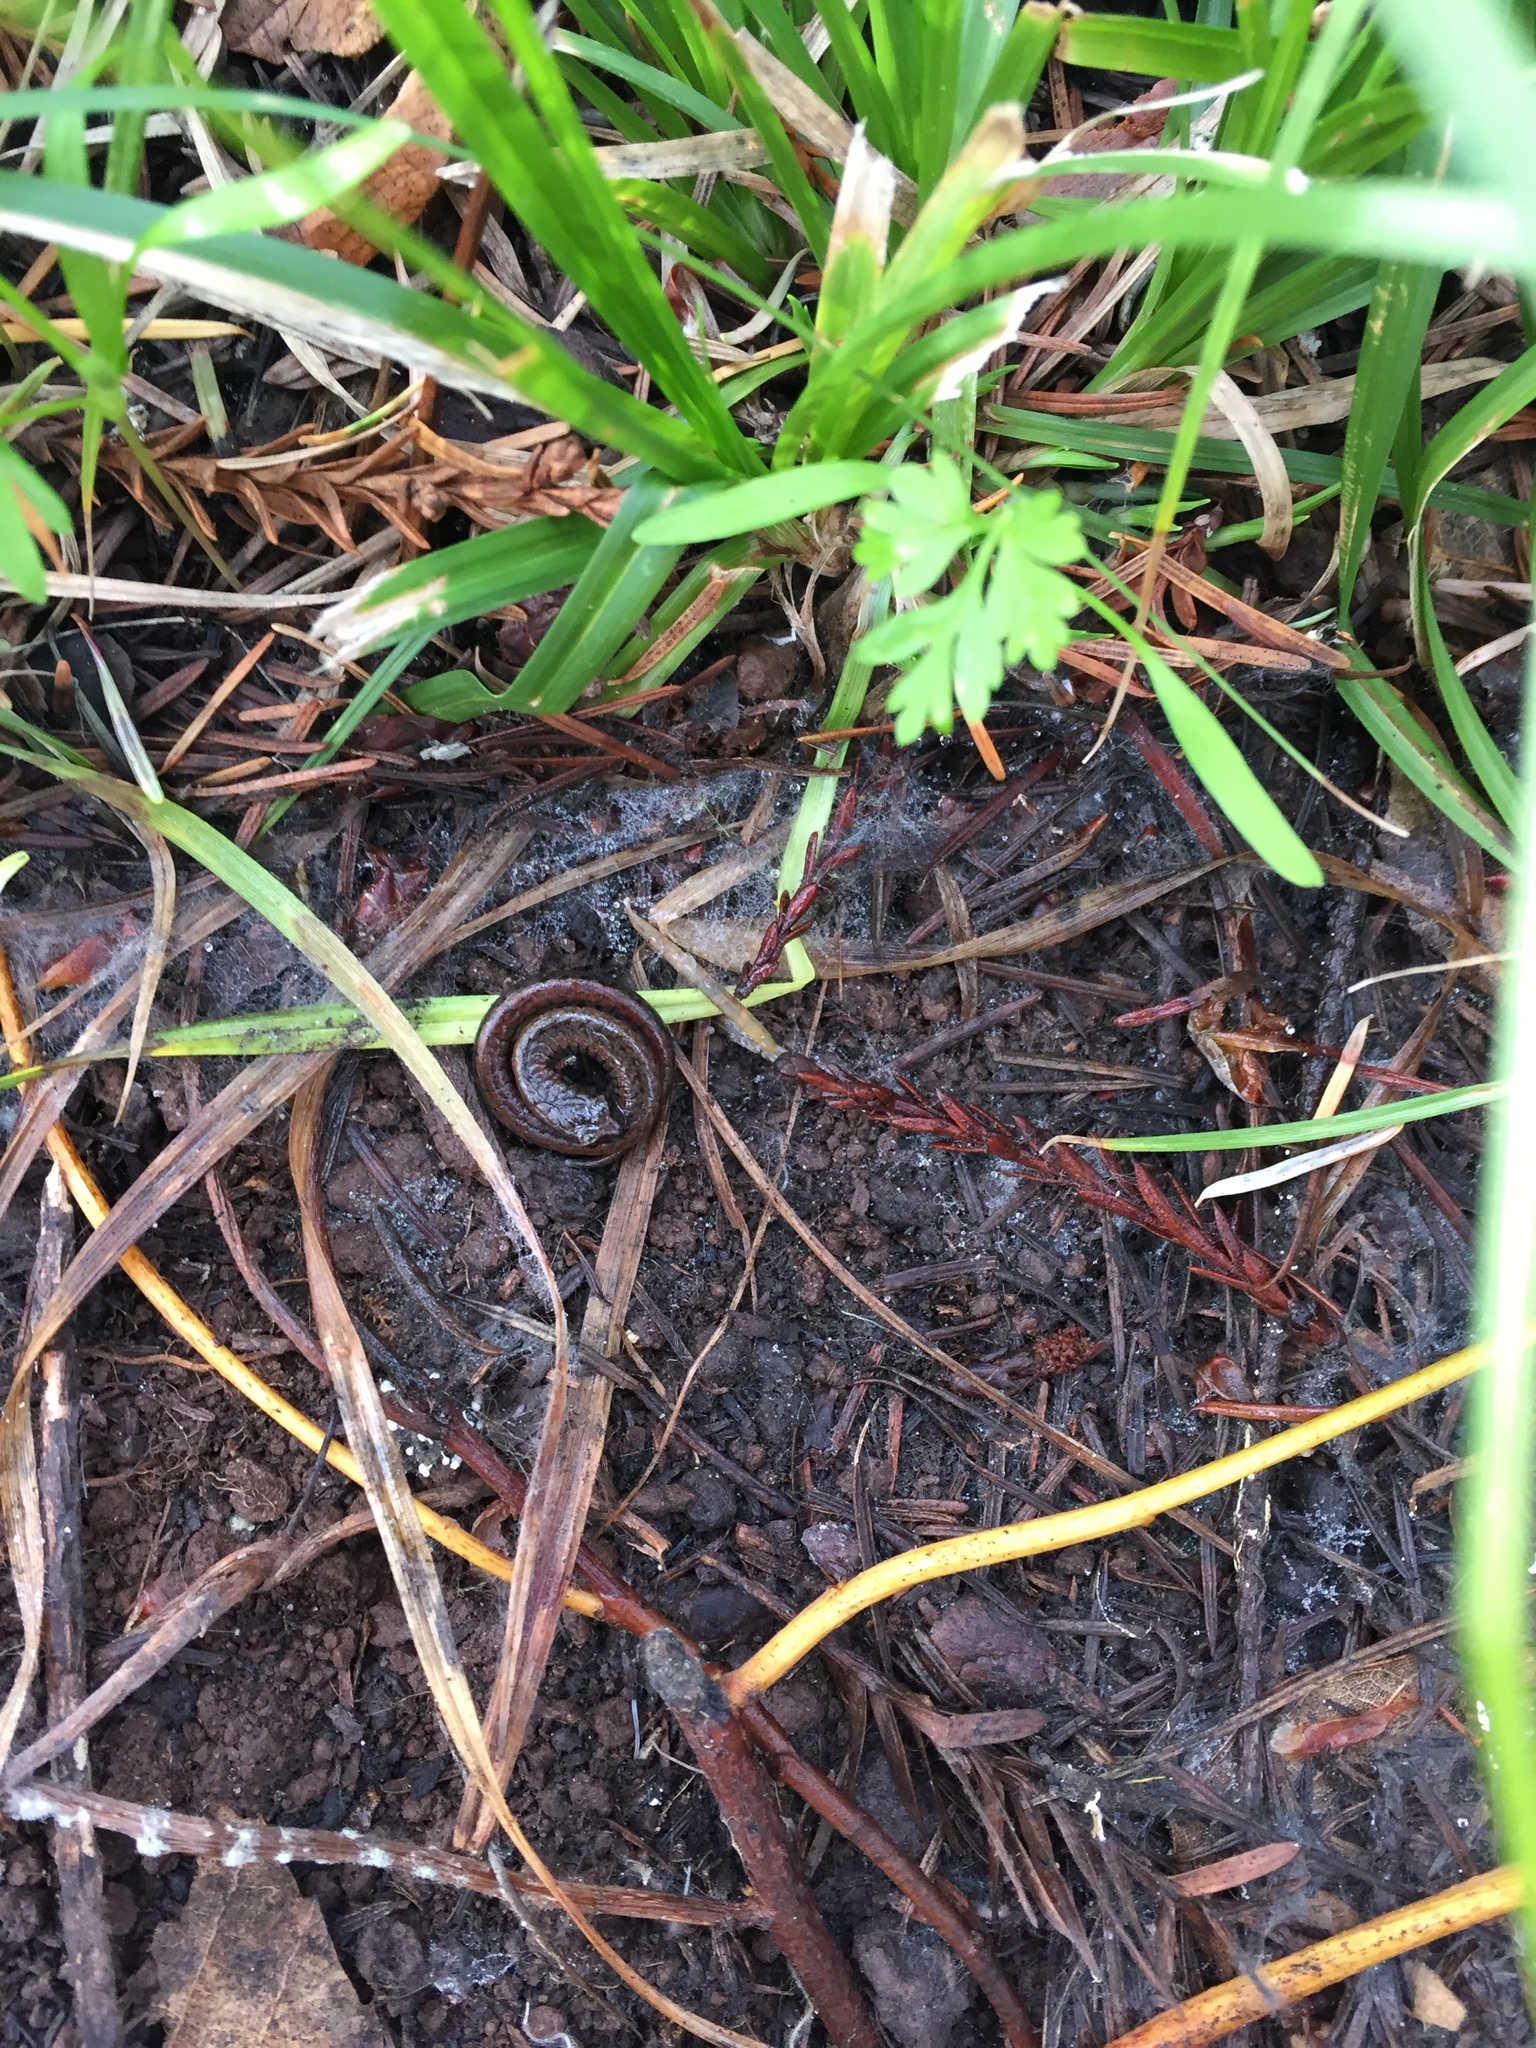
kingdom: Animalia
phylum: Chordata
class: Amphibia
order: Caudata
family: Plethodontidae
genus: Batrachoseps
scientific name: Batrachoseps attenuatus
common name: California slender salamander
